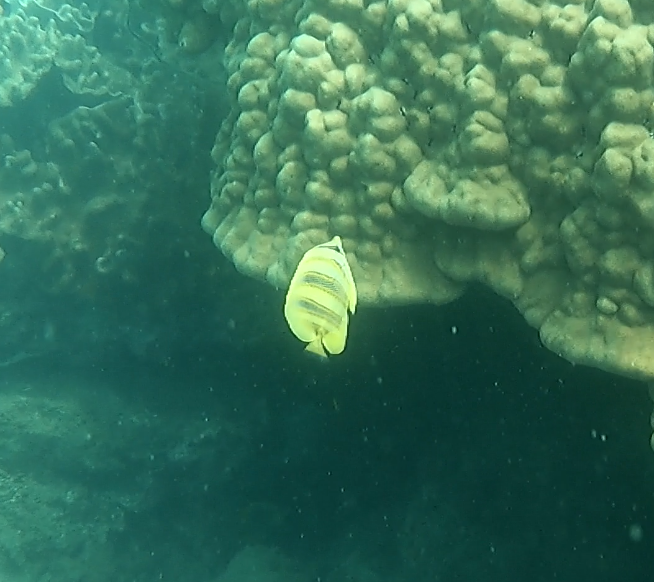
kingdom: Animalia
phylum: Chordata
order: Perciformes
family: Chaetodontidae
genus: Chaetodon
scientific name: Chaetodon rainfordi
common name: Rainford's butterflyfish
